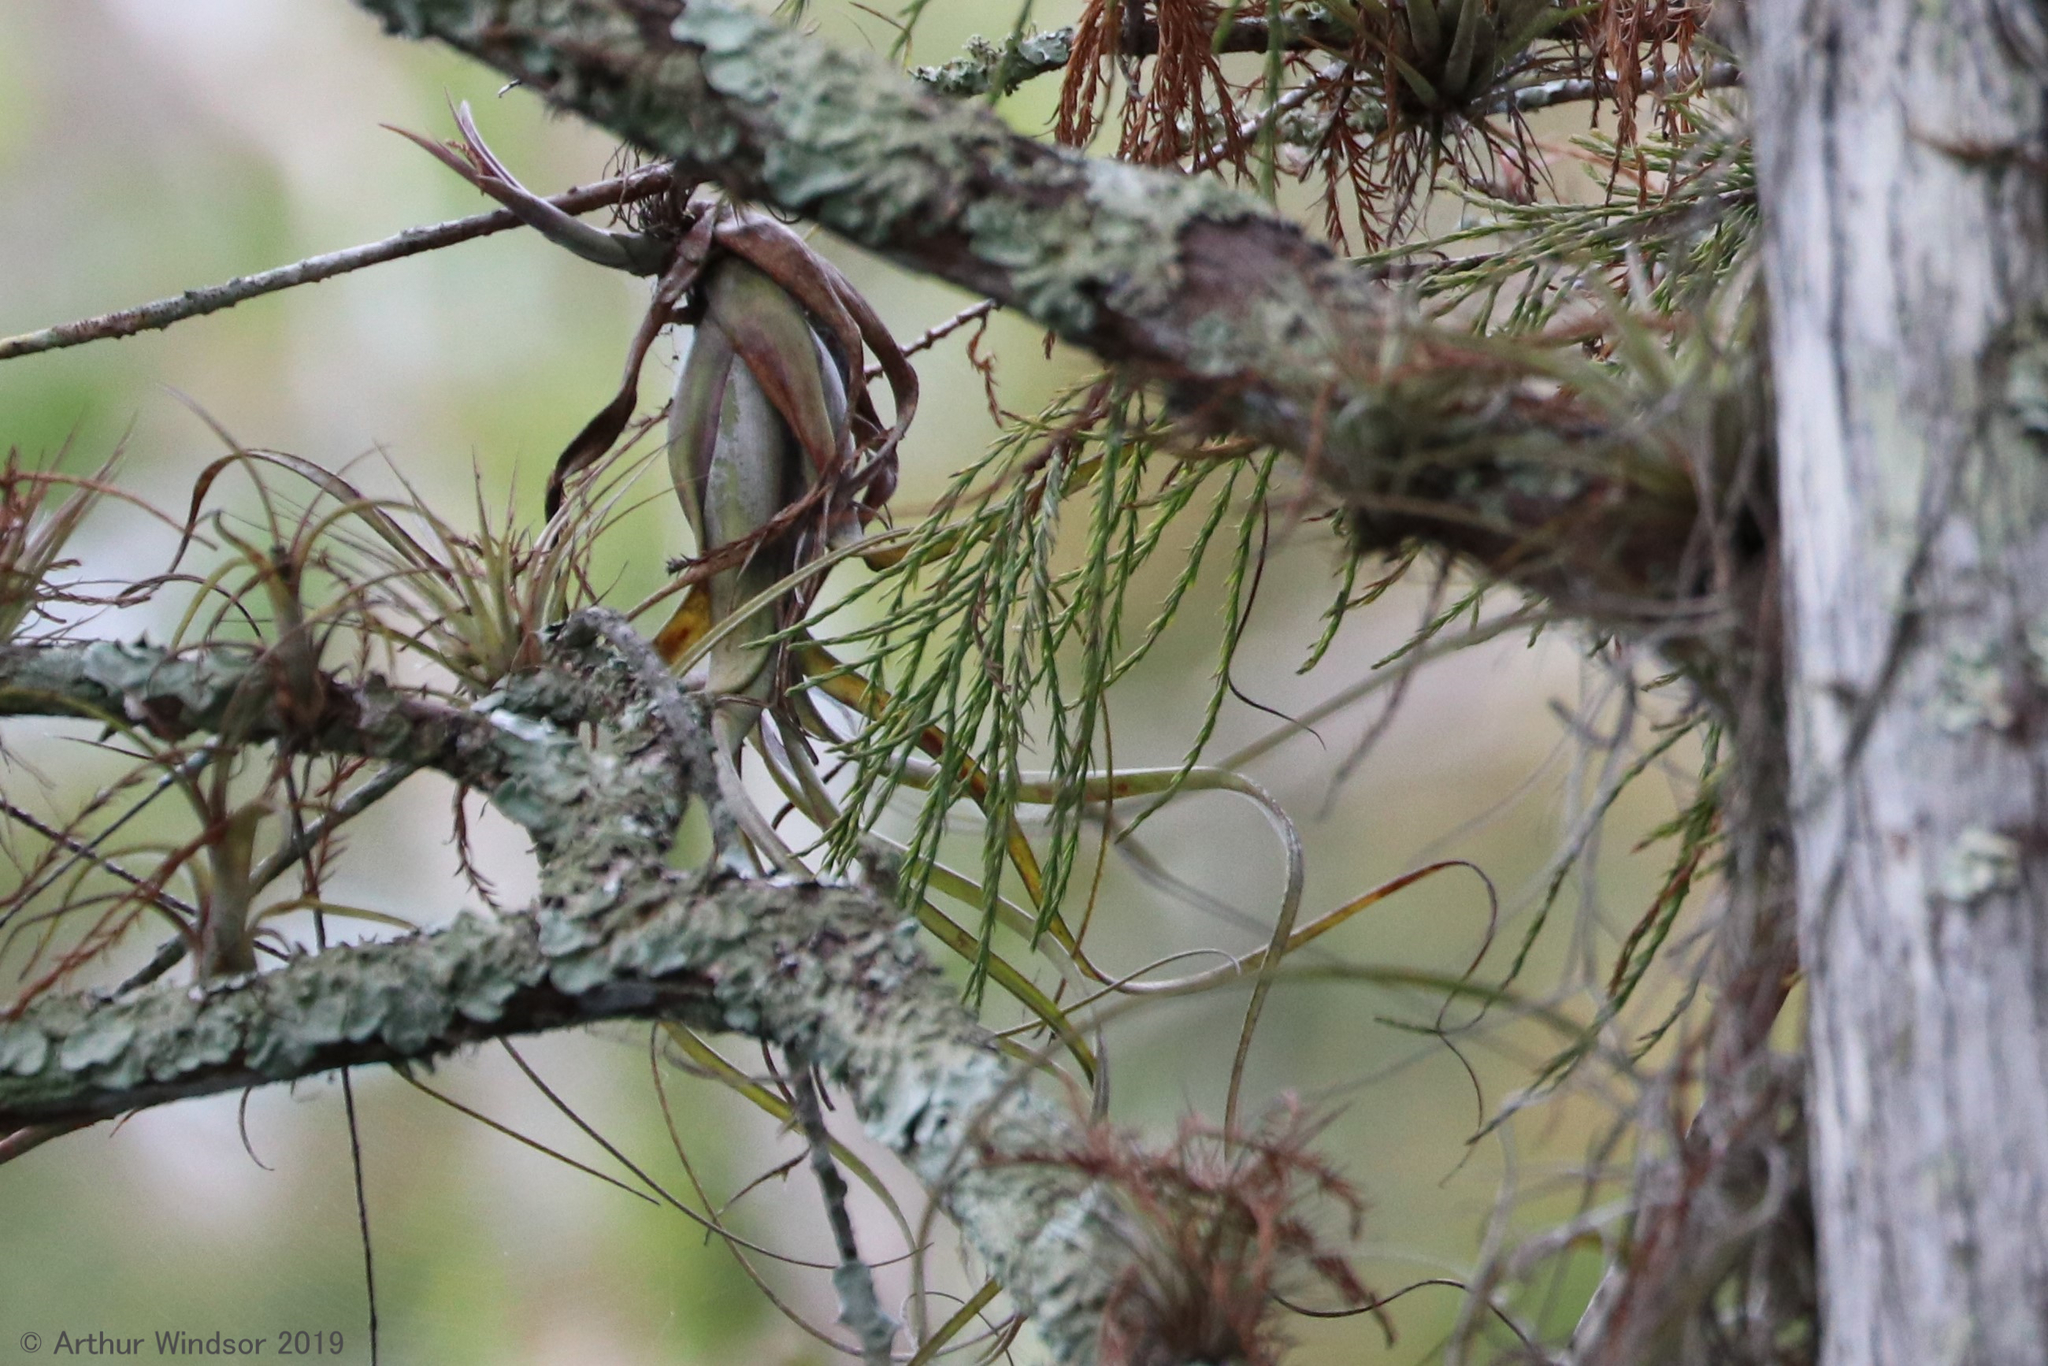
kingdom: Plantae
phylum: Tracheophyta
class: Liliopsida
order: Poales
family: Bromeliaceae
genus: Tillandsia
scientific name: Tillandsia balbisiana
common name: Northern needleleaf
